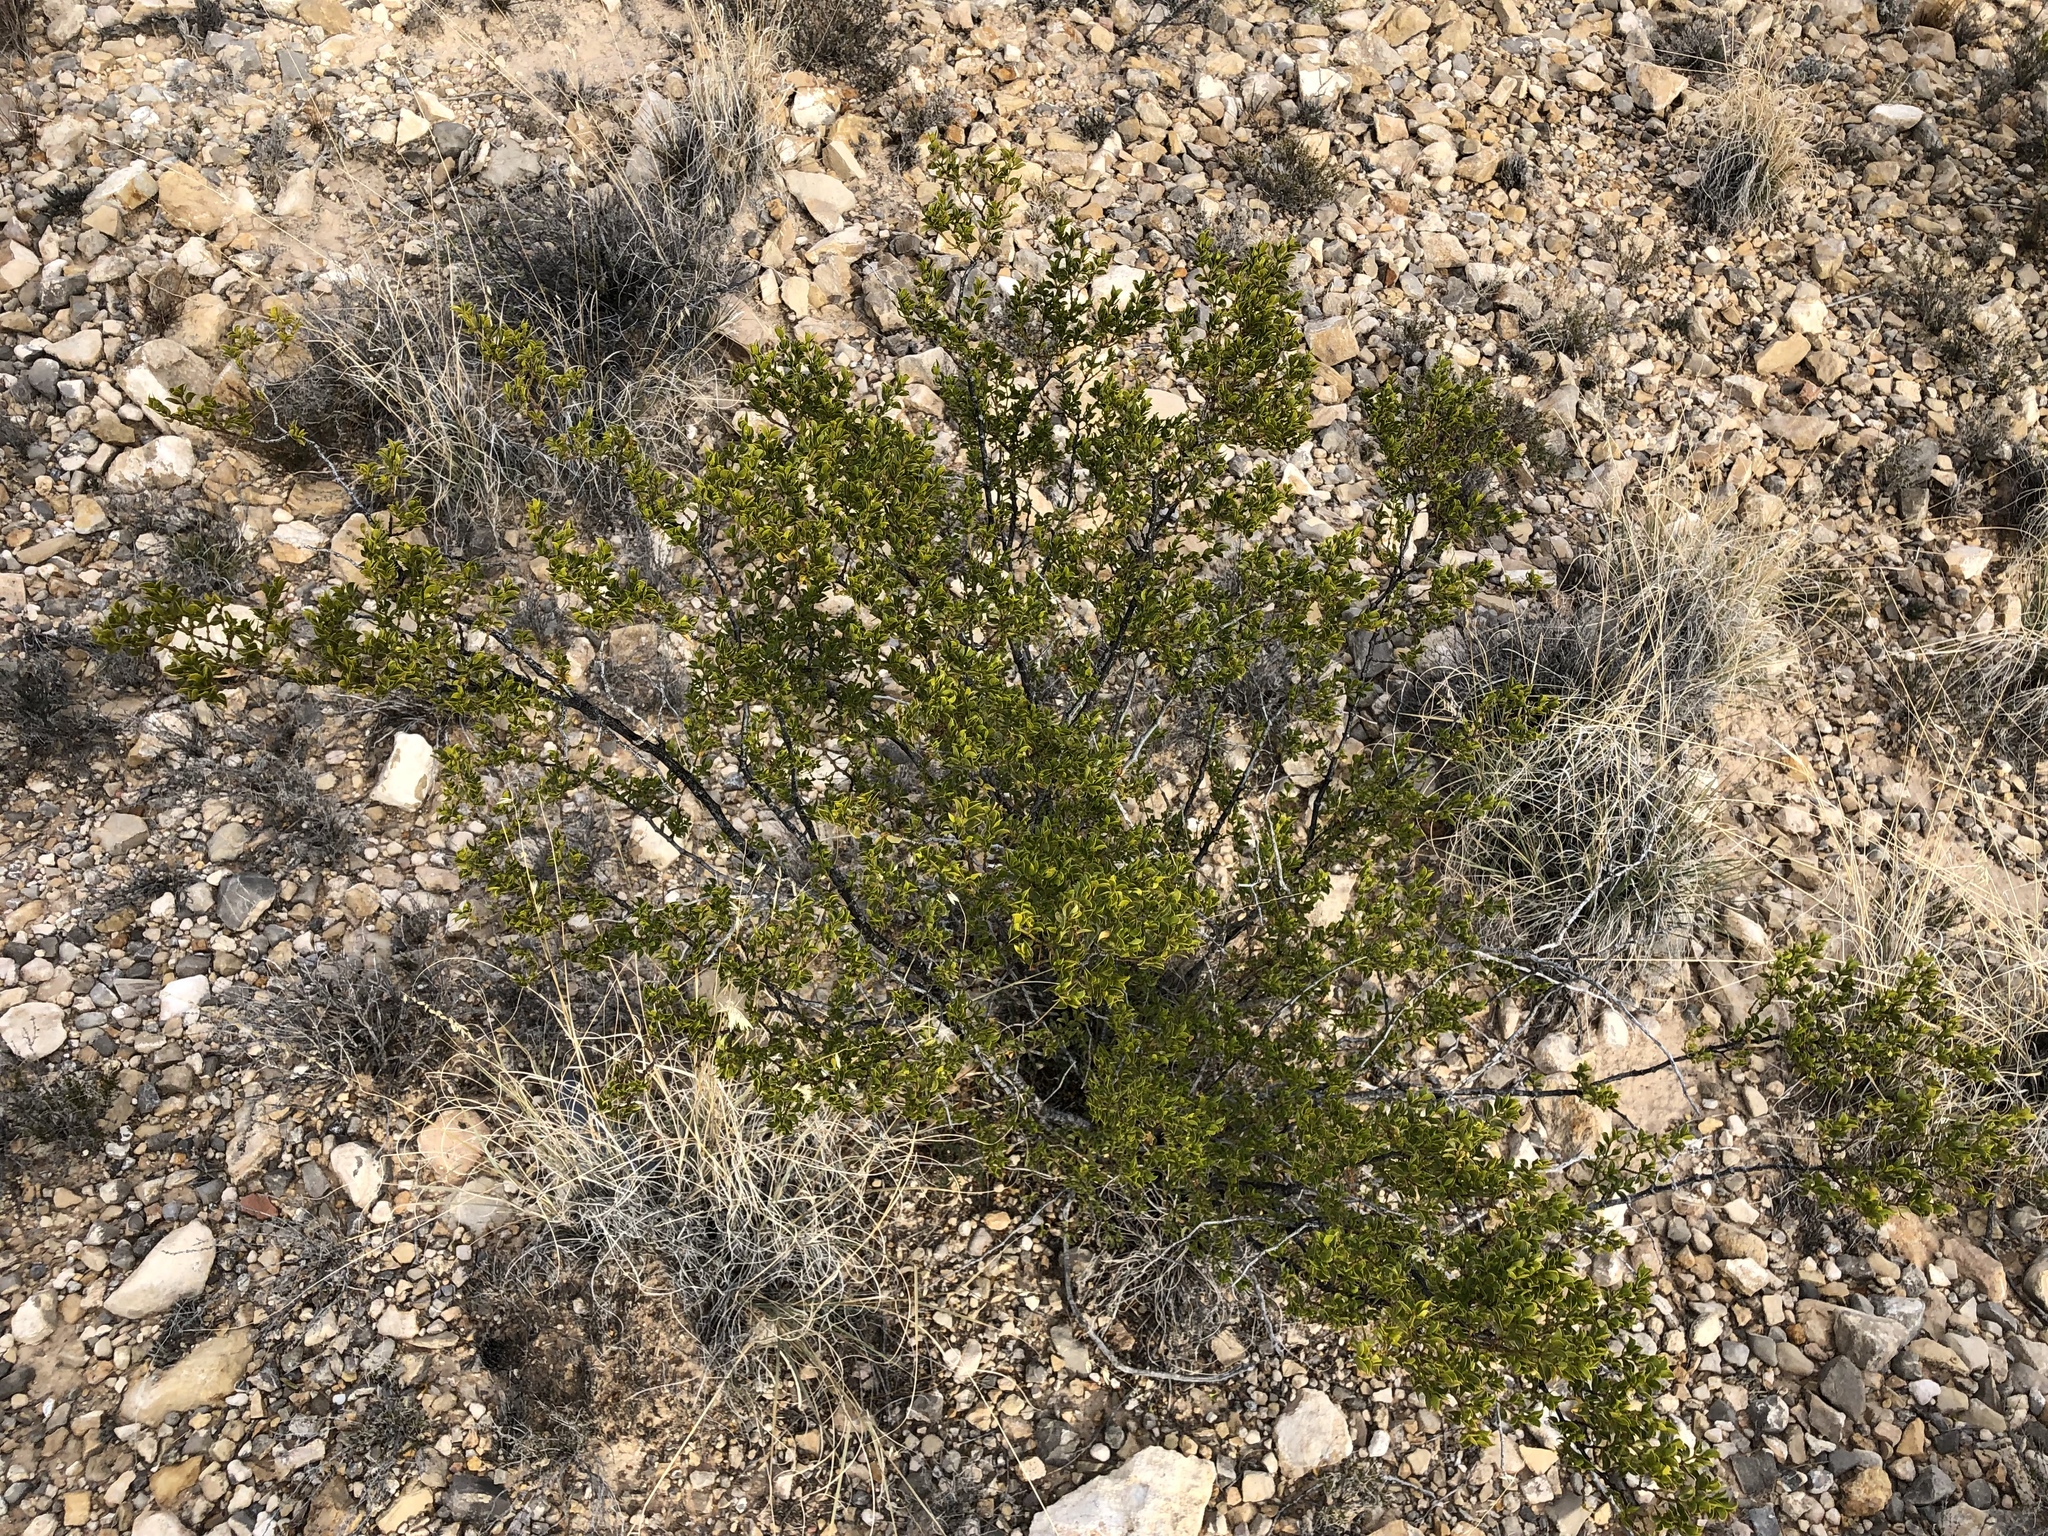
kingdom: Plantae
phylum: Tracheophyta
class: Magnoliopsida
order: Zygophyllales
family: Zygophyllaceae
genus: Larrea
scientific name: Larrea tridentata
